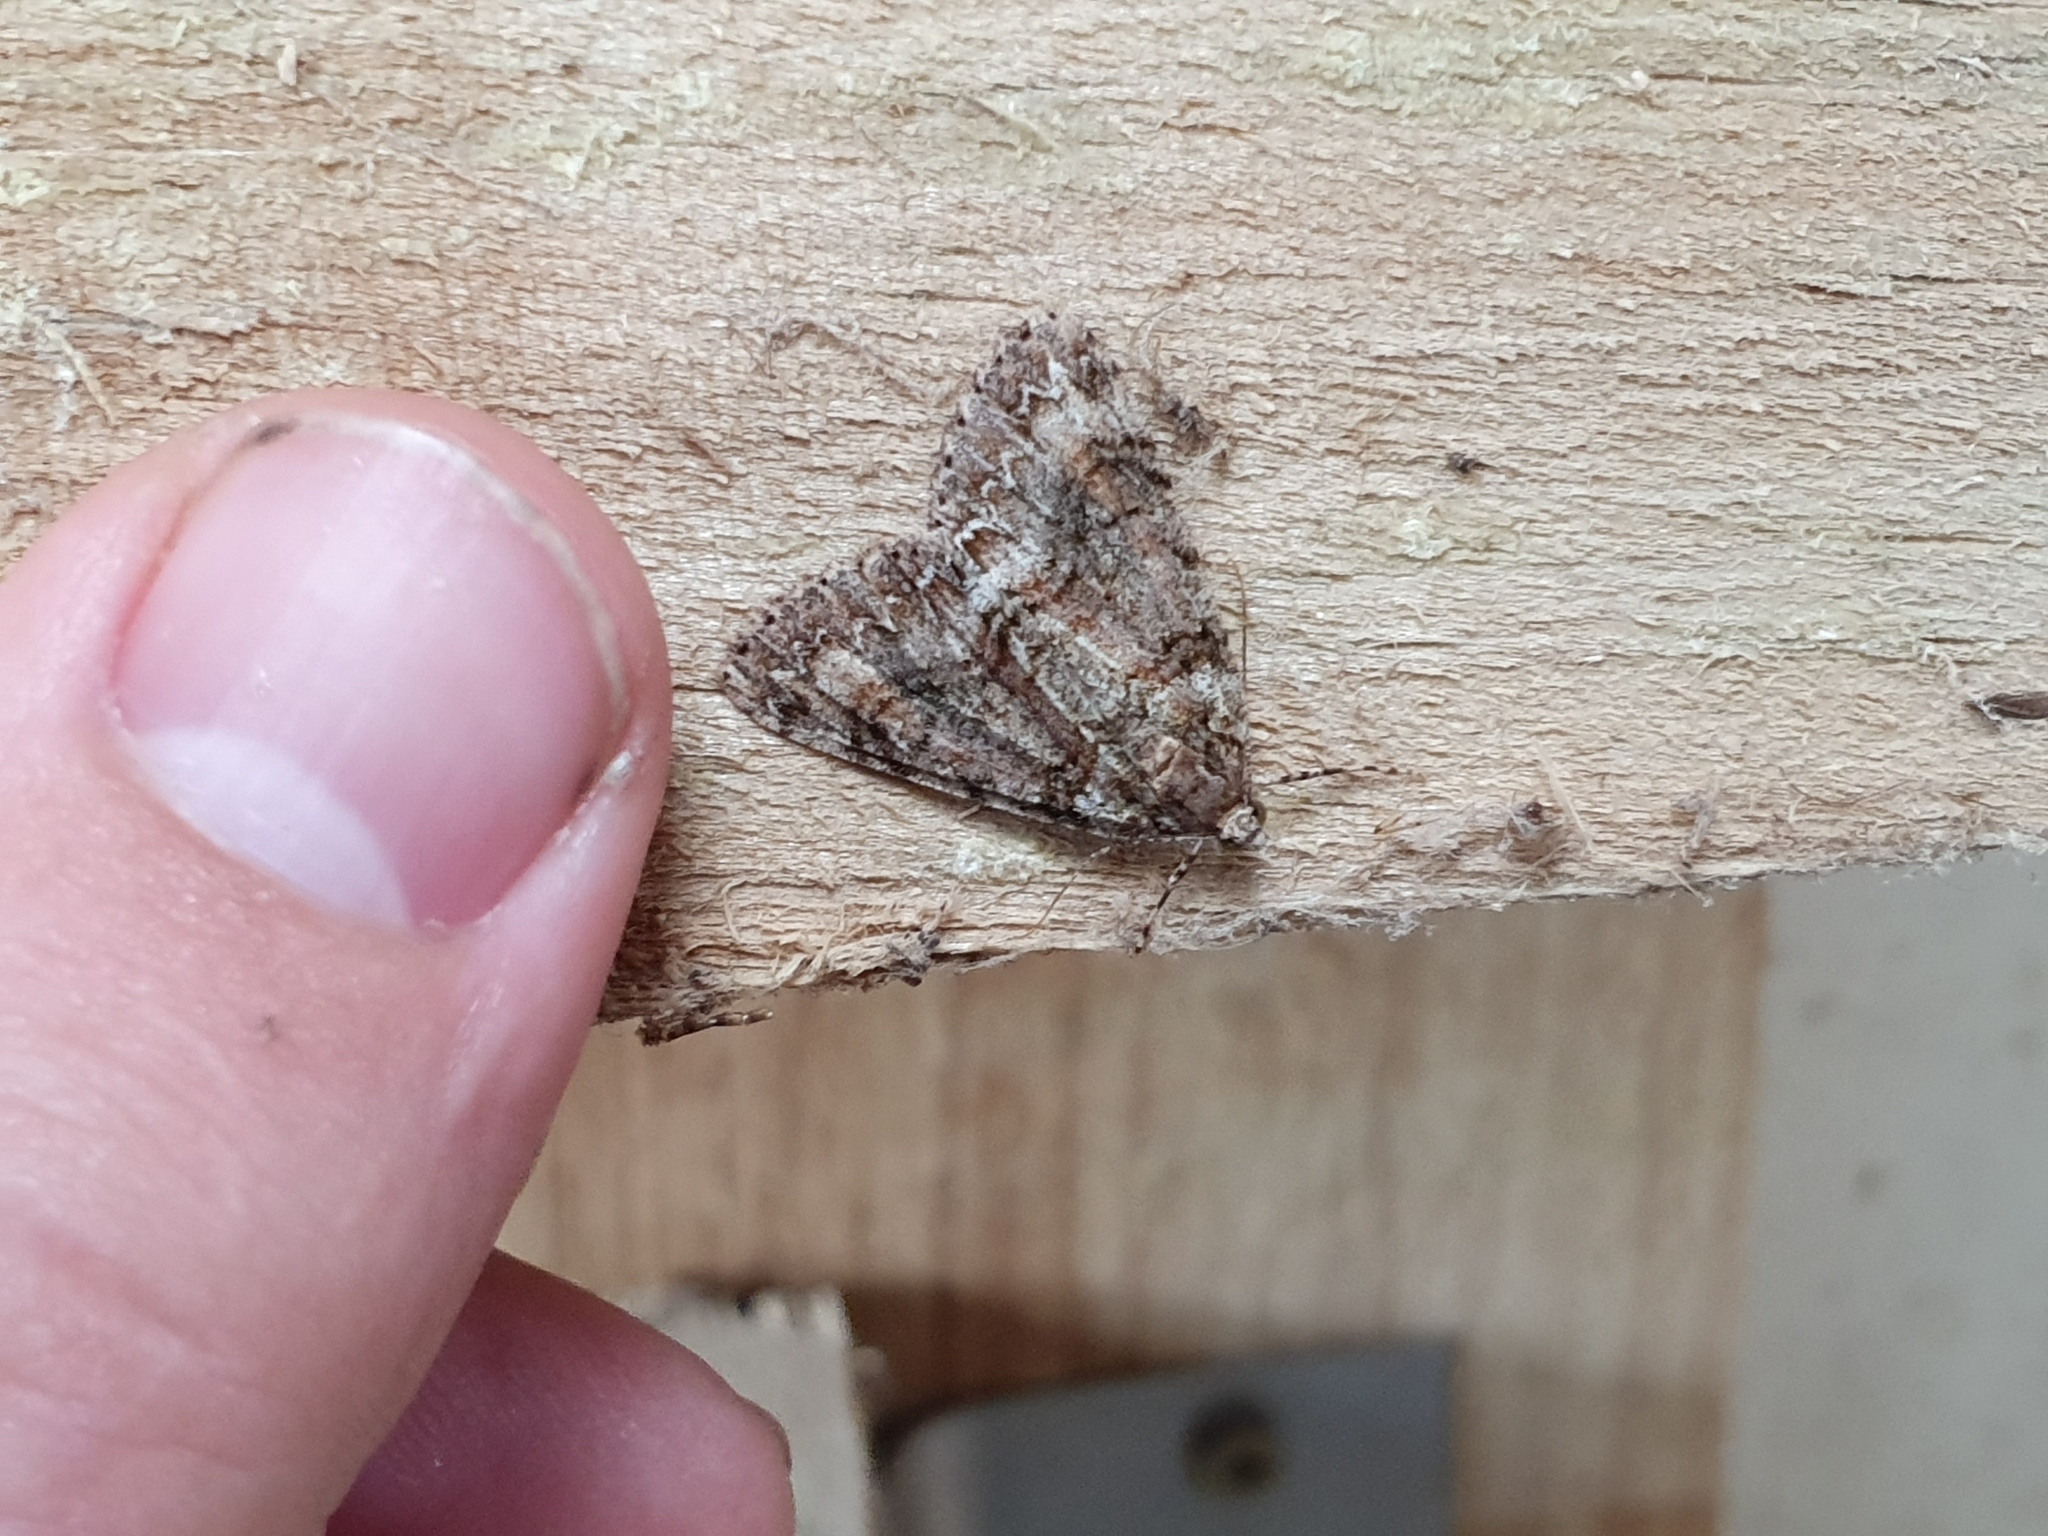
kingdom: Animalia
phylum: Arthropoda
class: Insecta
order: Lepidoptera
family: Geometridae
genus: Pseudocoremia
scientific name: Pseudocoremia suavis
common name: Common forest looper
